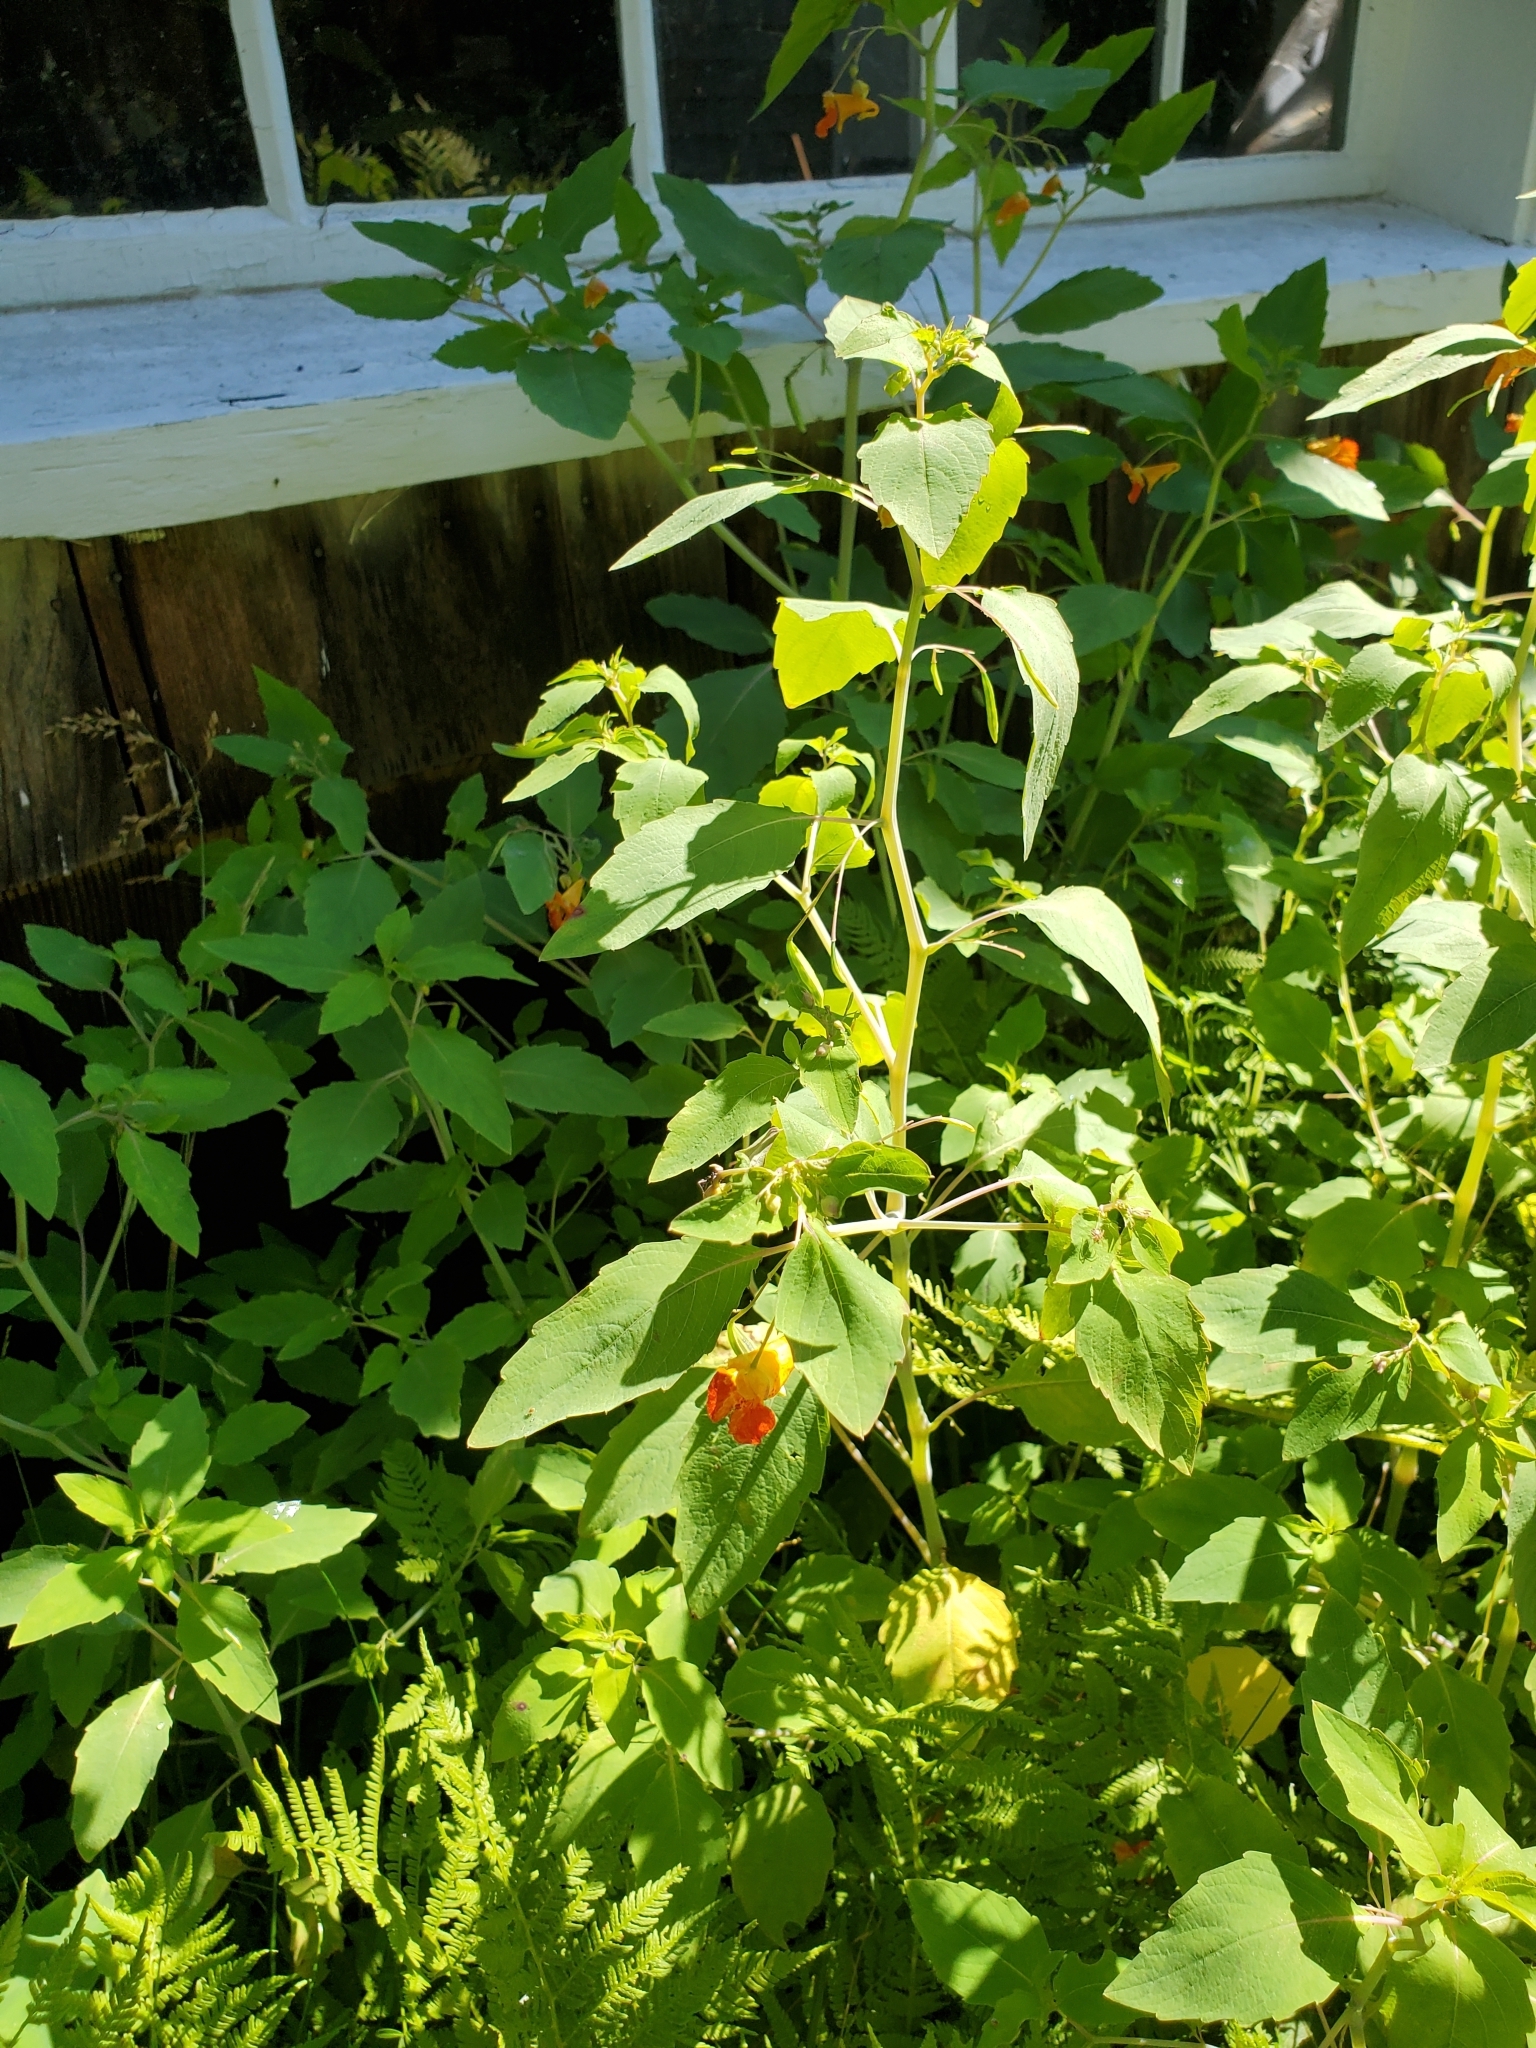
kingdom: Plantae
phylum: Tracheophyta
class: Magnoliopsida
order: Ericales
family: Balsaminaceae
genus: Impatiens
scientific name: Impatiens capensis
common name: Orange balsam
